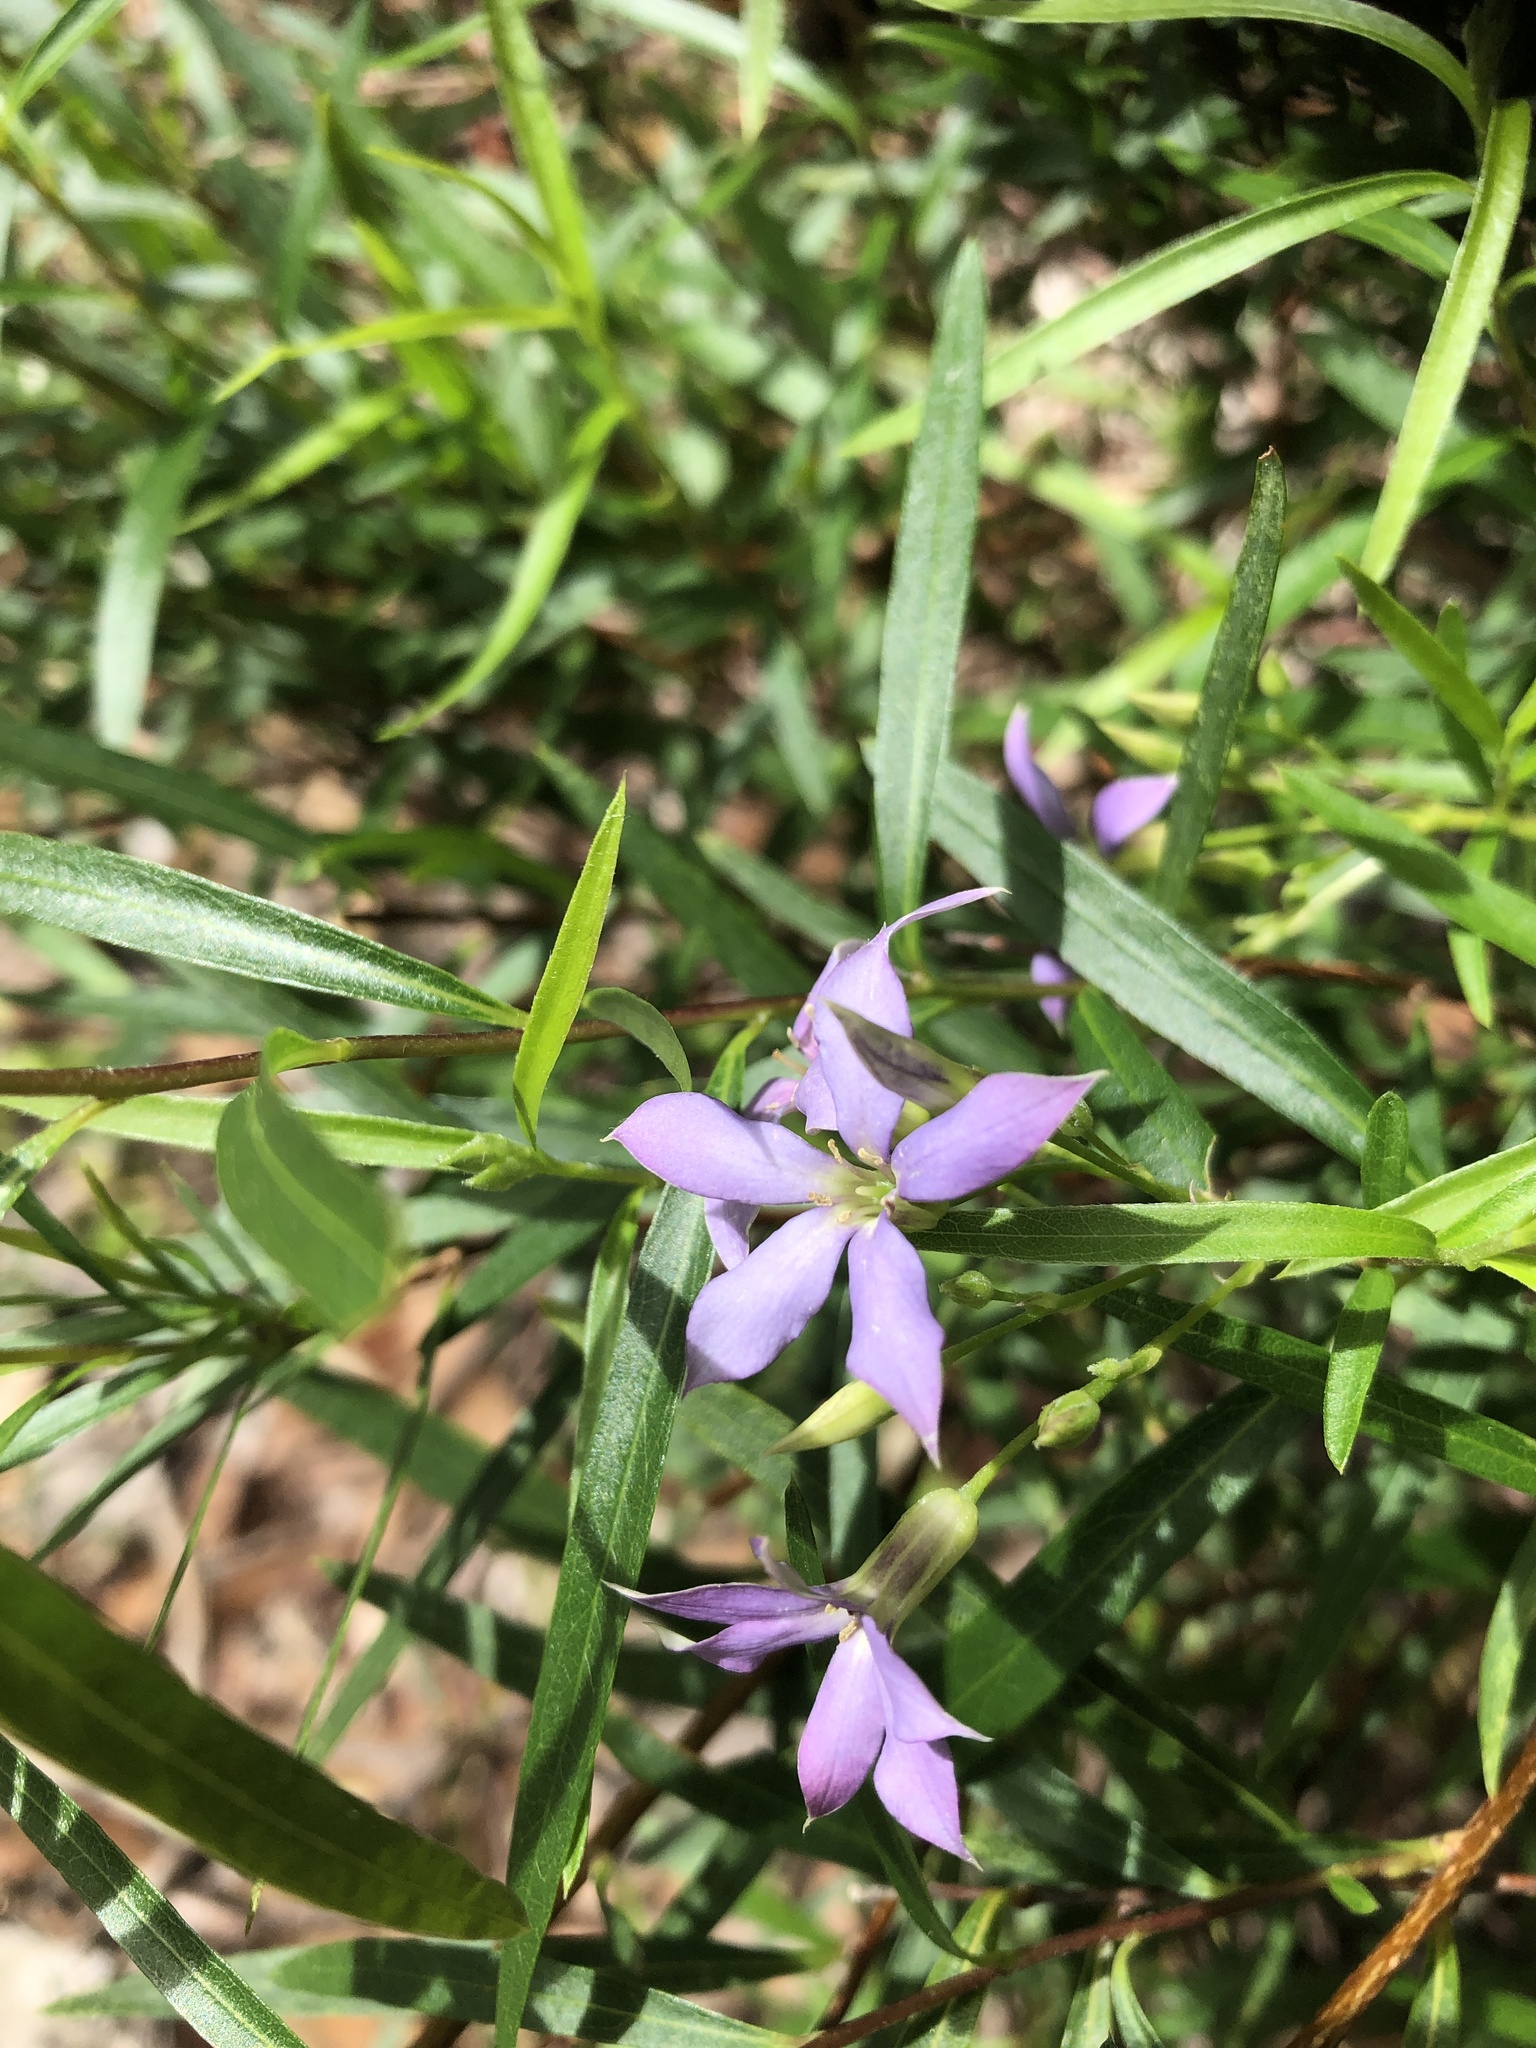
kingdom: Plantae
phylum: Tracheophyta
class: Magnoliopsida
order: Apiales
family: Pittosporaceae
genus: Billardiera
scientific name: Billardiera cymosa
